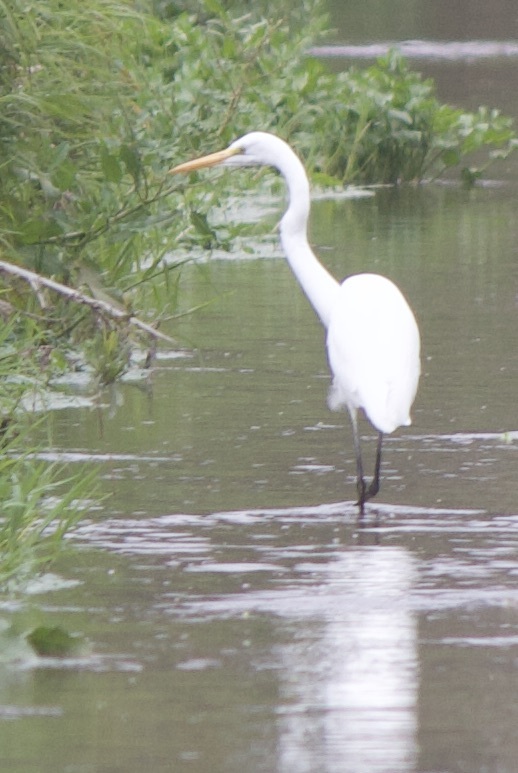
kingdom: Animalia
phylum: Chordata
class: Aves
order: Pelecaniformes
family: Ardeidae
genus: Ardea
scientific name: Ardea alba
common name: Great egret
